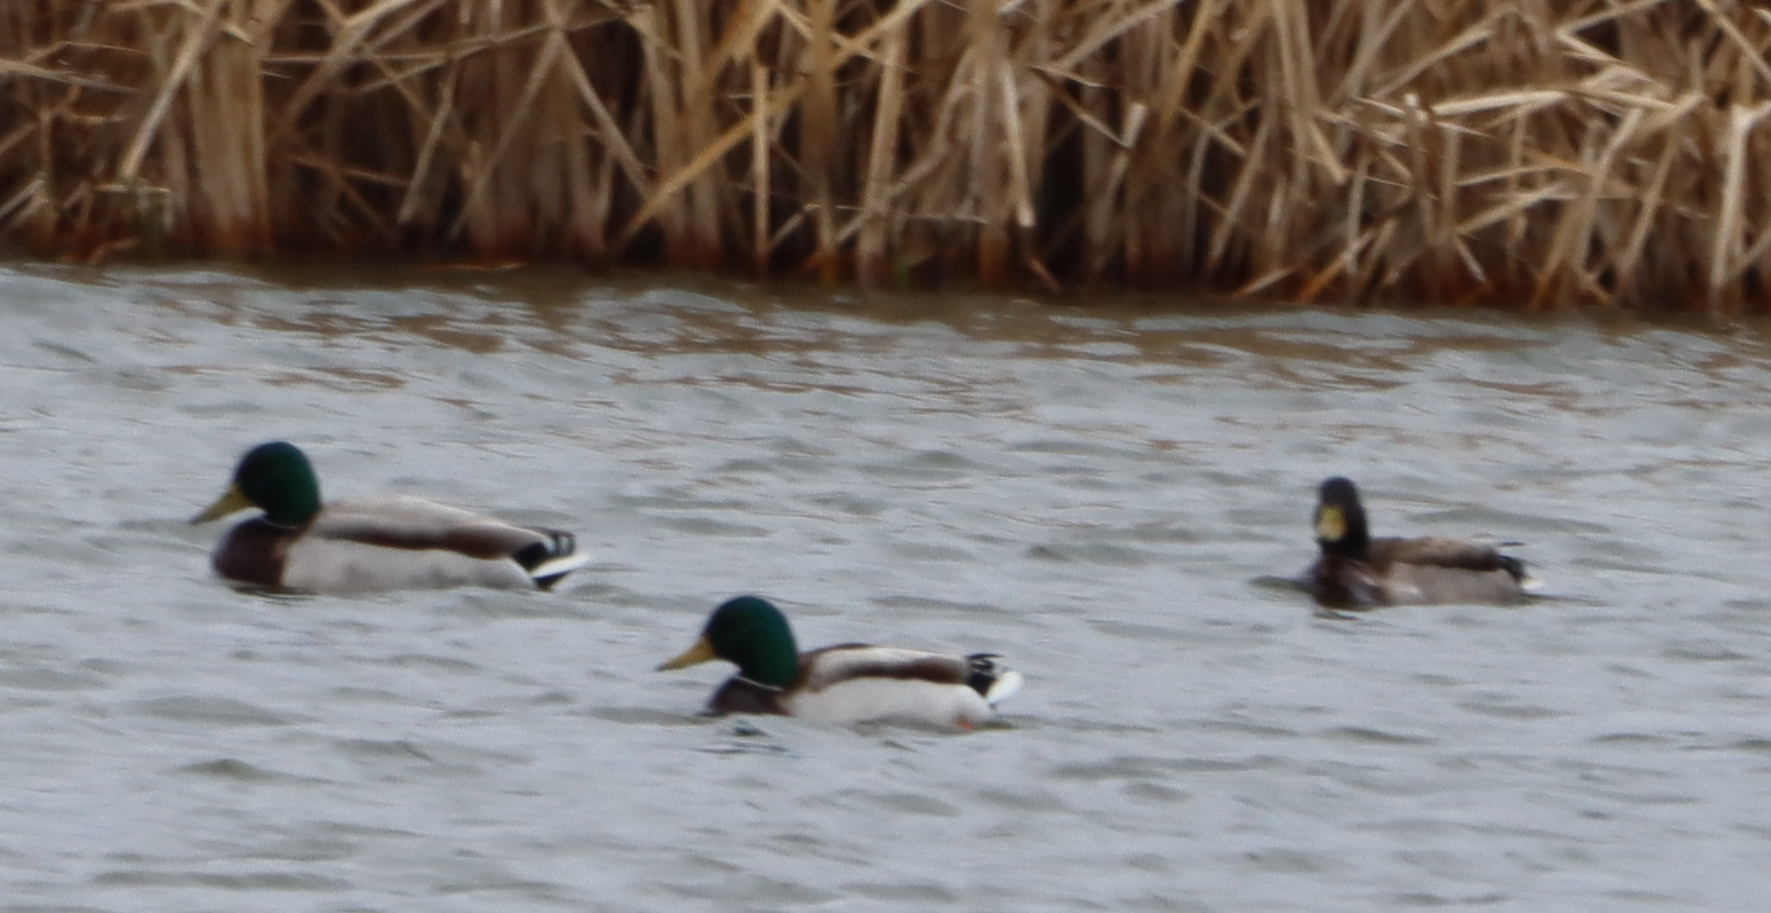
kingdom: Animalia
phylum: Chordata
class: Aves
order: Anseriformes
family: Anatidae
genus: Anas
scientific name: Anas platyrhynchos
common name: Mallard
